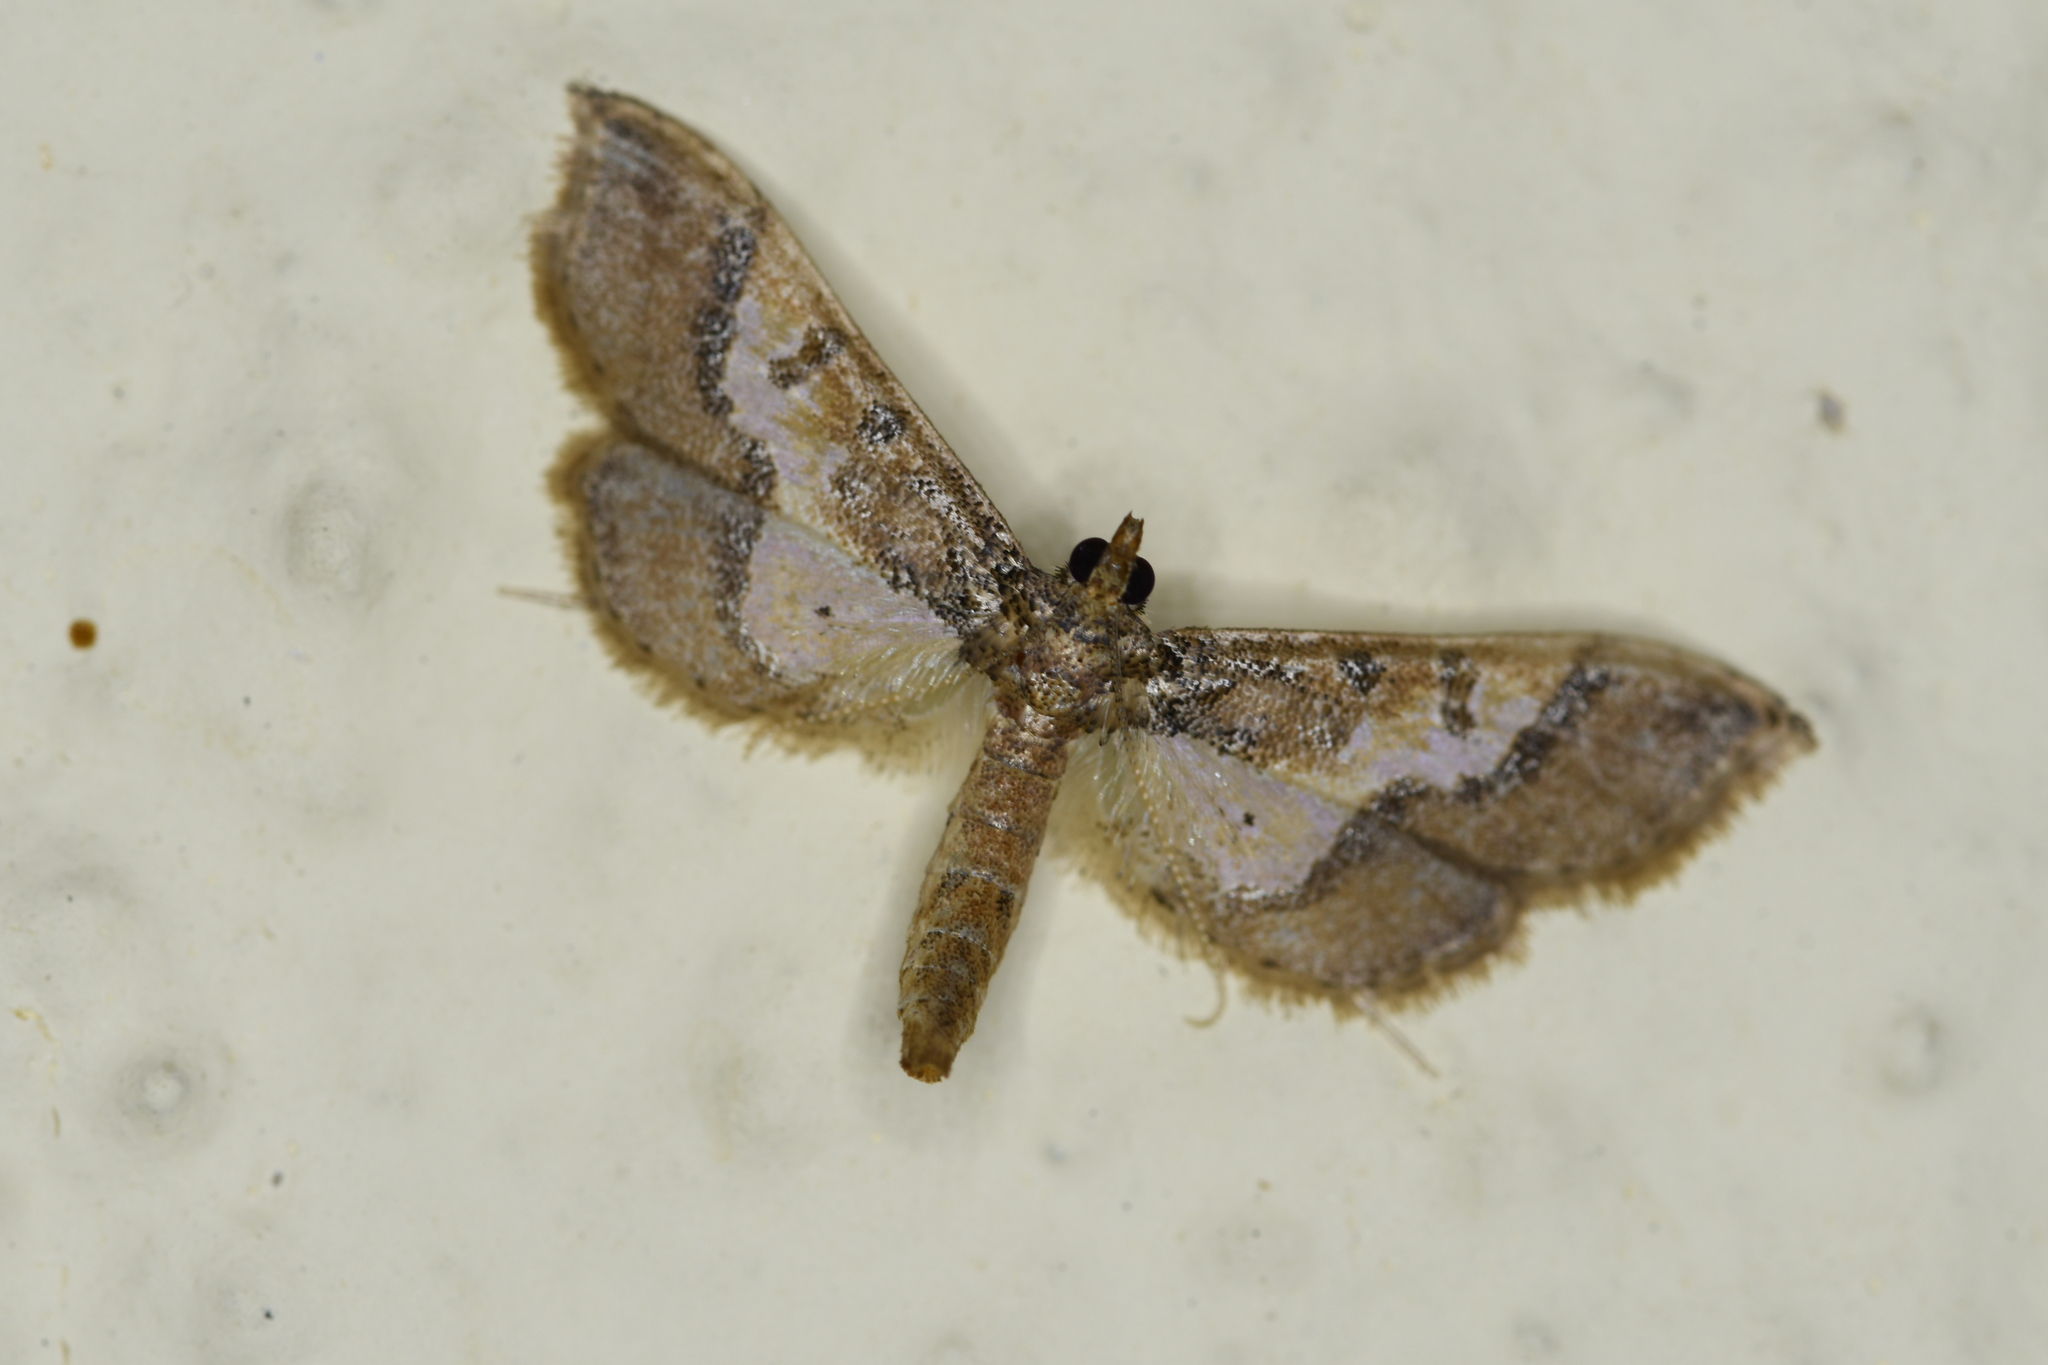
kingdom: Animalia
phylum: Arthropoda
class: Insecta
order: Lepidoptera
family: Crambidae
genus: Hydriris
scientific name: Hydriris ornatalis
